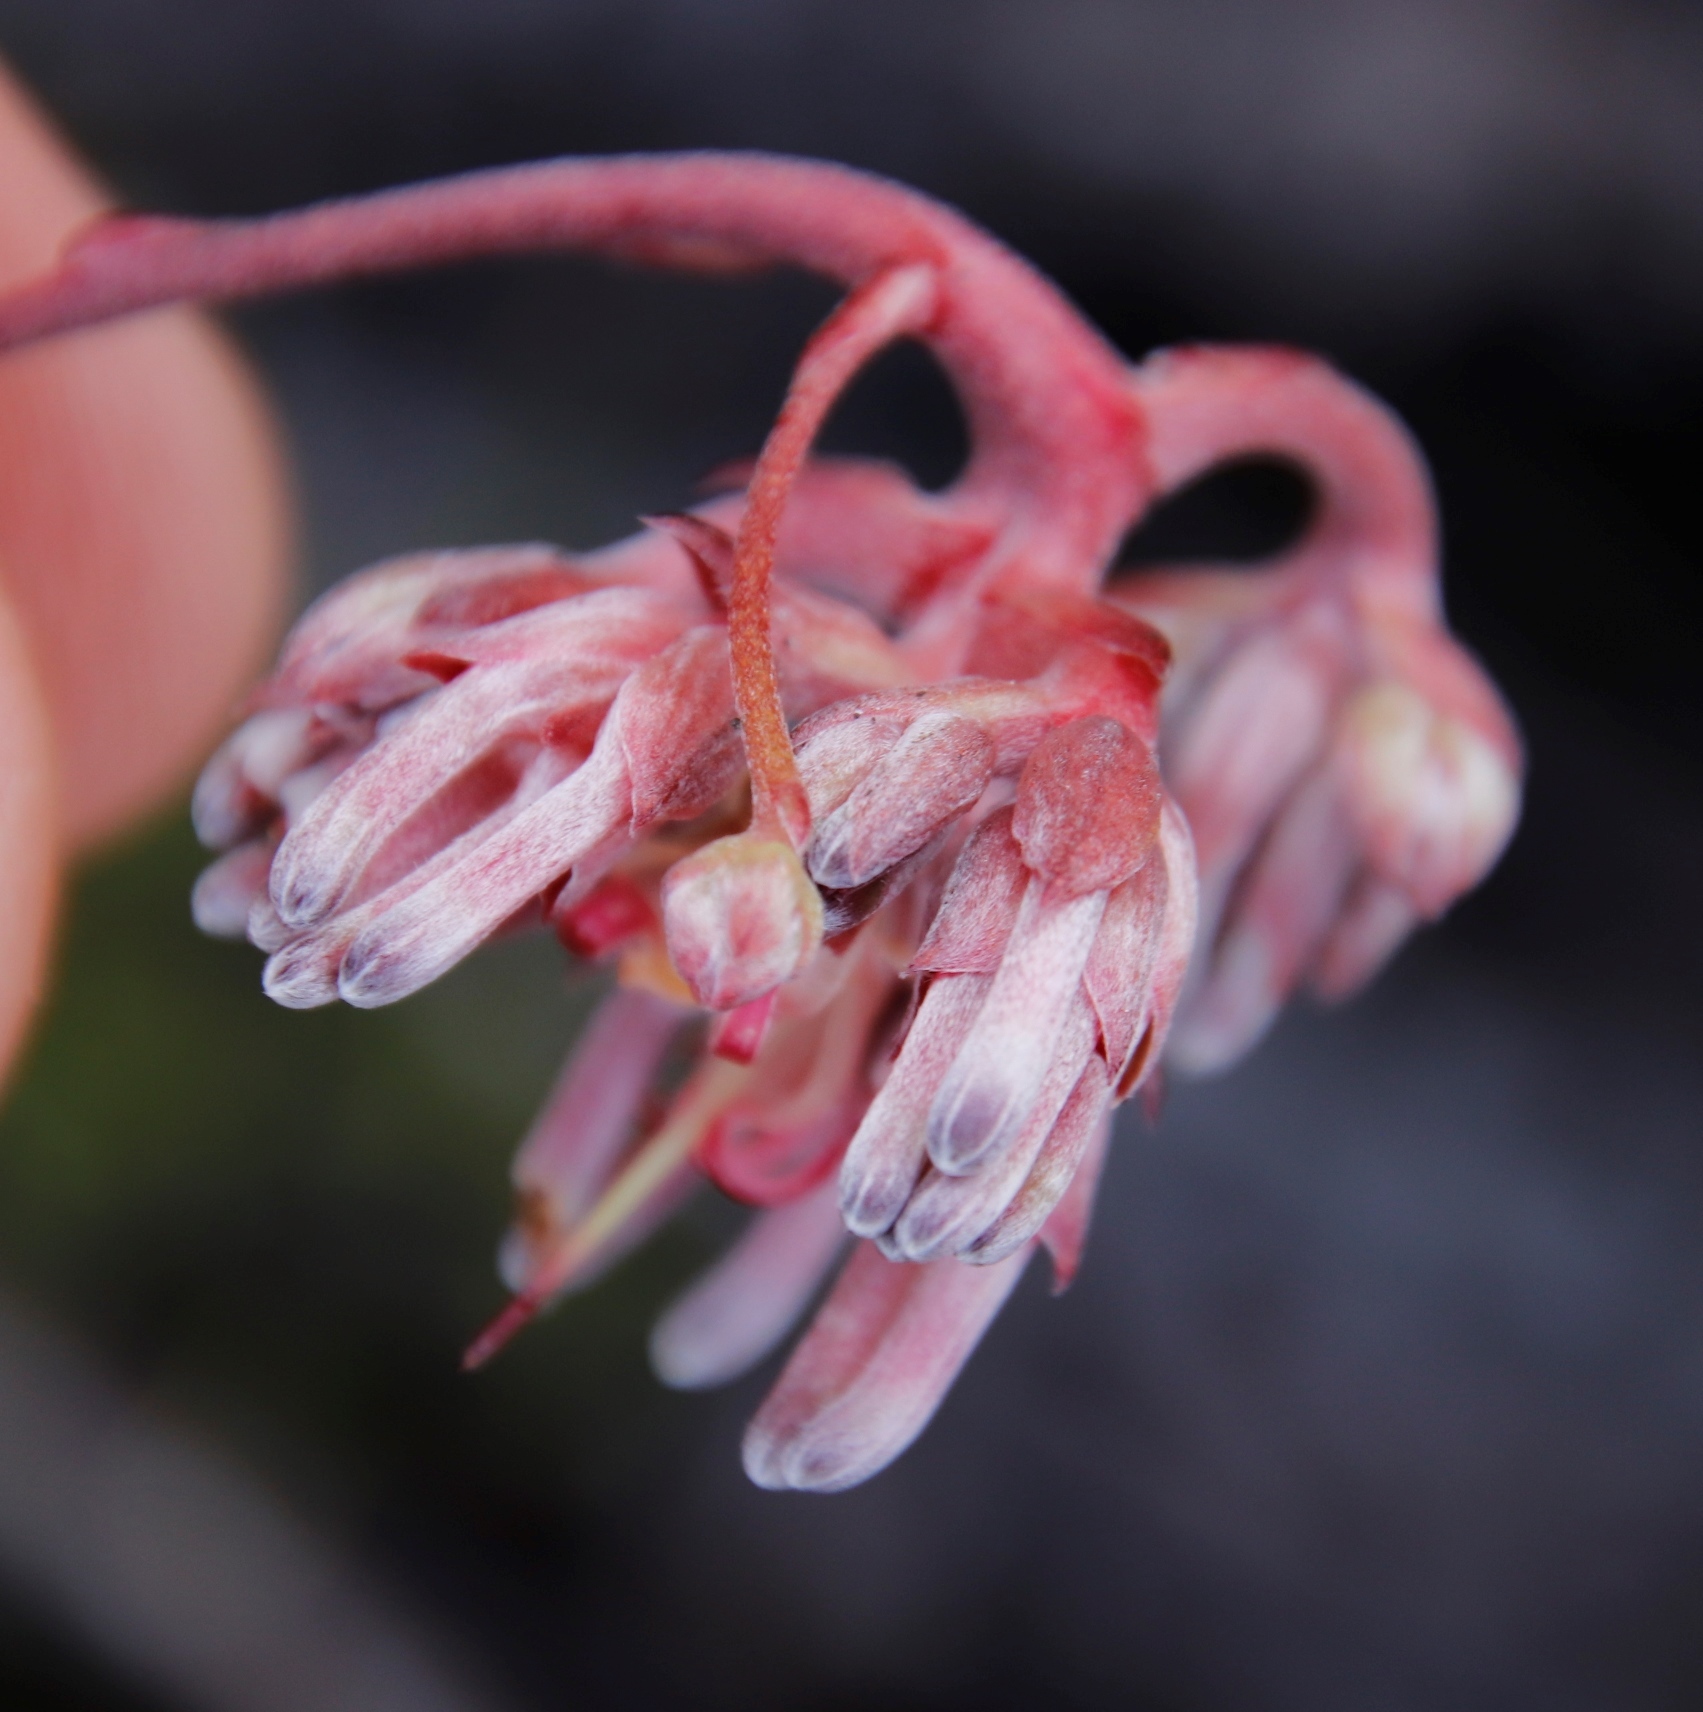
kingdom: Plantae
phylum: Tracheophyta
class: Magnoliopsida
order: Proteales
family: Proteaceae
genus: Serruria
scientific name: Serruria decumbens
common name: Peninsula spiderhead
